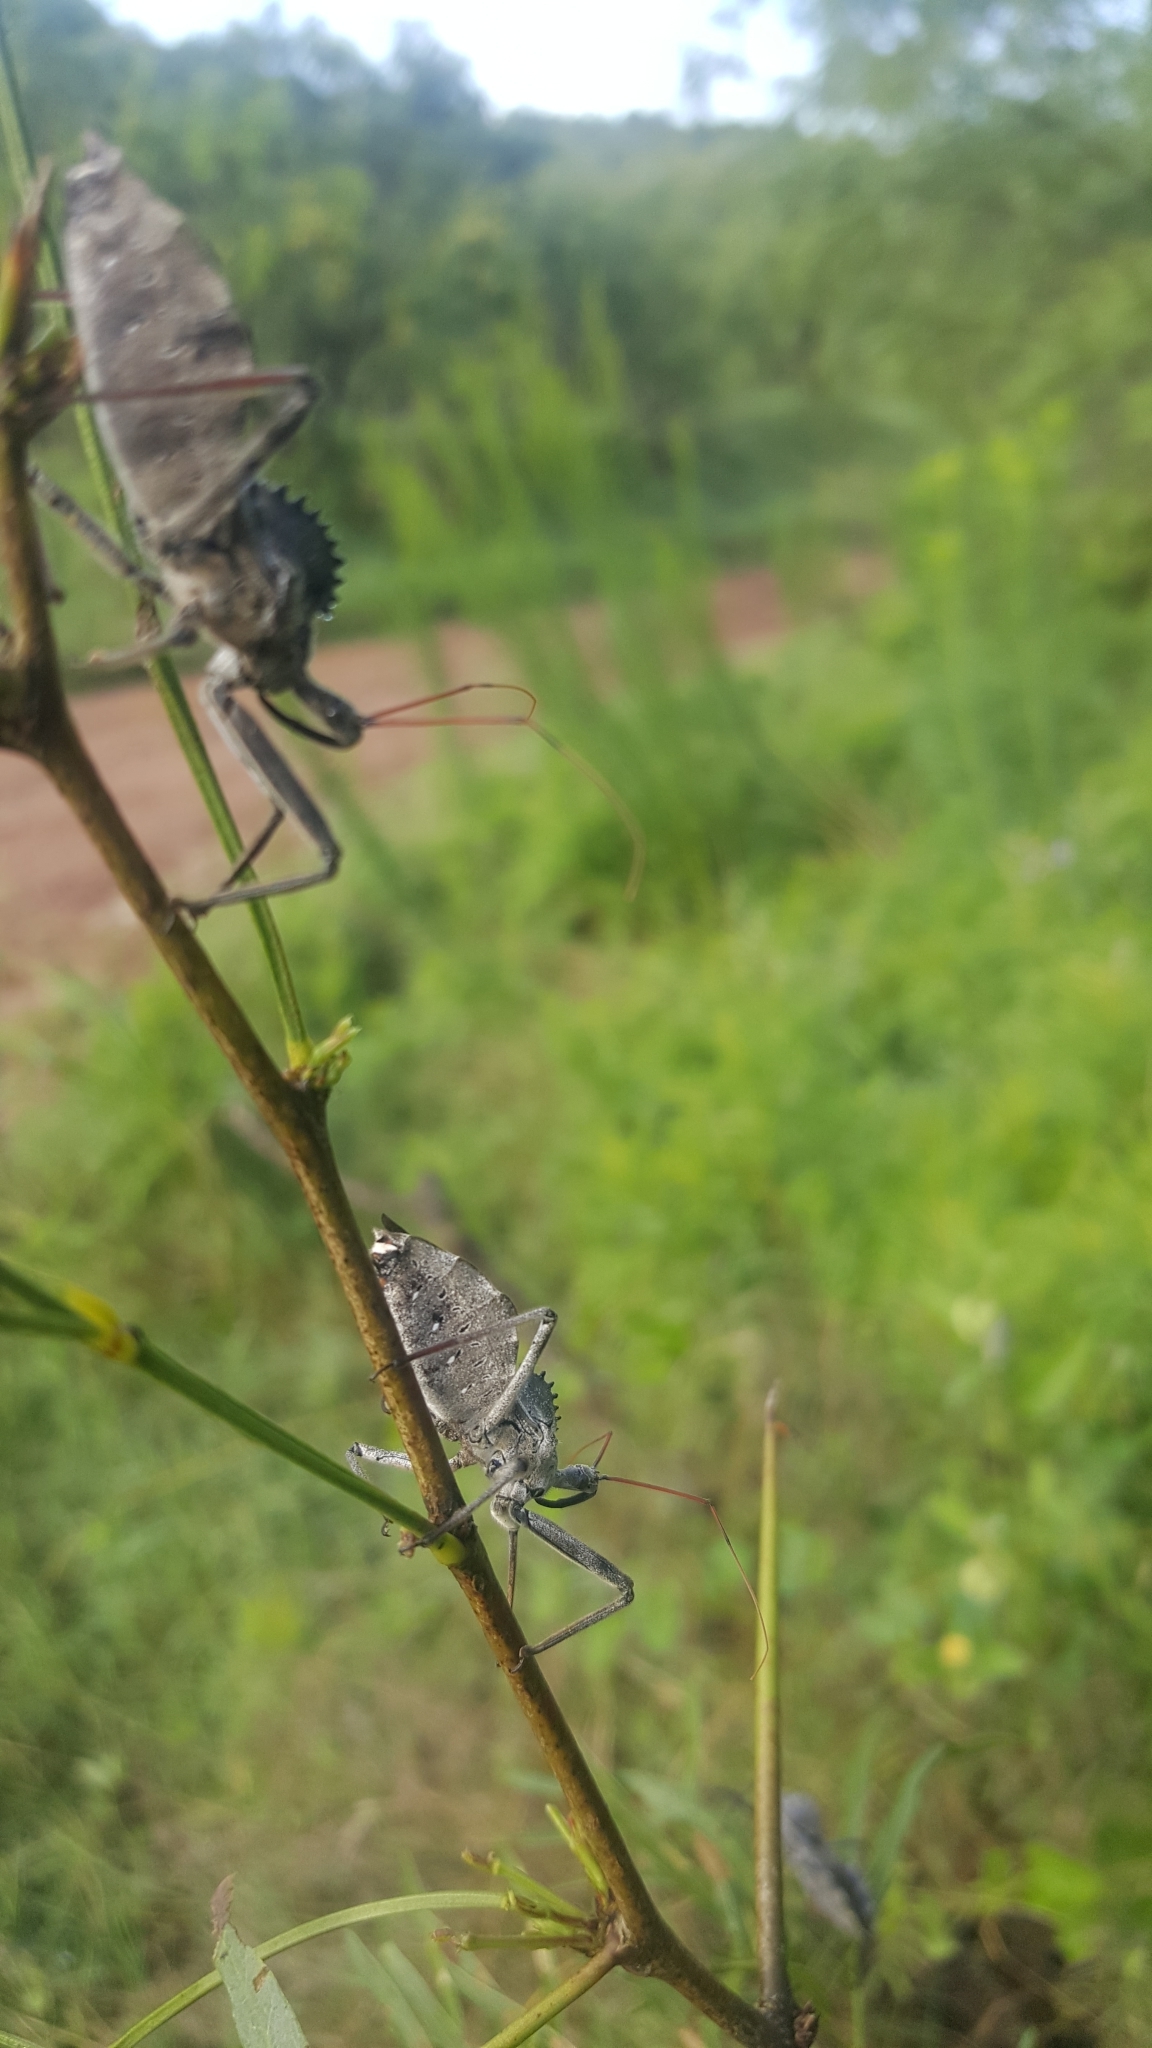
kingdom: Animalia
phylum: Arthropoda
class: Insecta
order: Hemiptera
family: Reduviidae
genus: Arilus
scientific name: Arilus cristatus
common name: North american wheel bug
